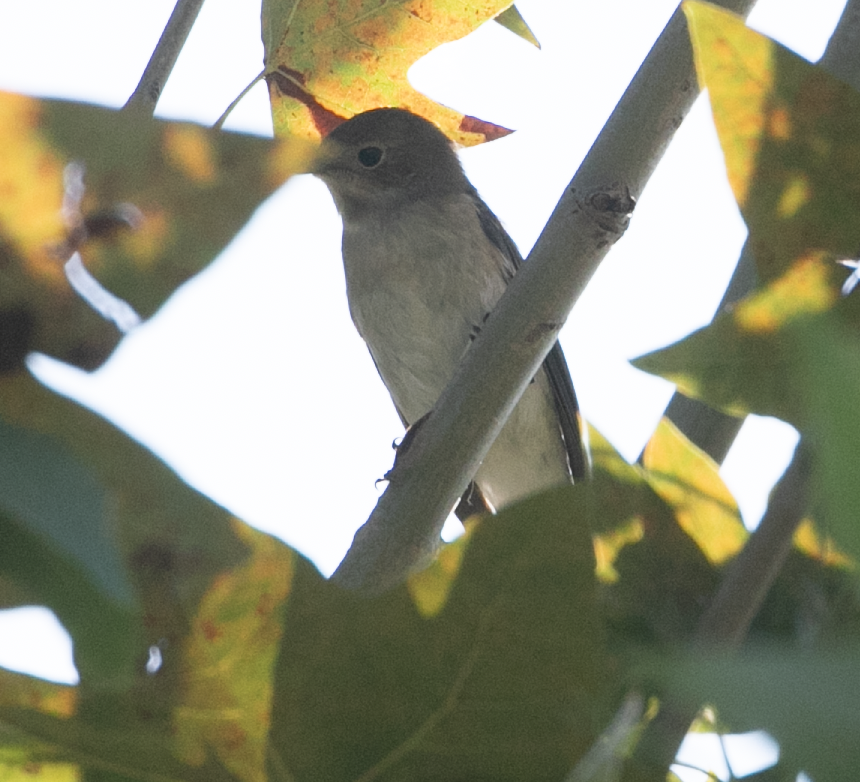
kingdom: Animalia
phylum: Chordata
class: Aves
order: Passeriformes
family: Muscicapidae
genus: Ficedula
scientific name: Ficedula hypoleuca
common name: European pied flycatcher
